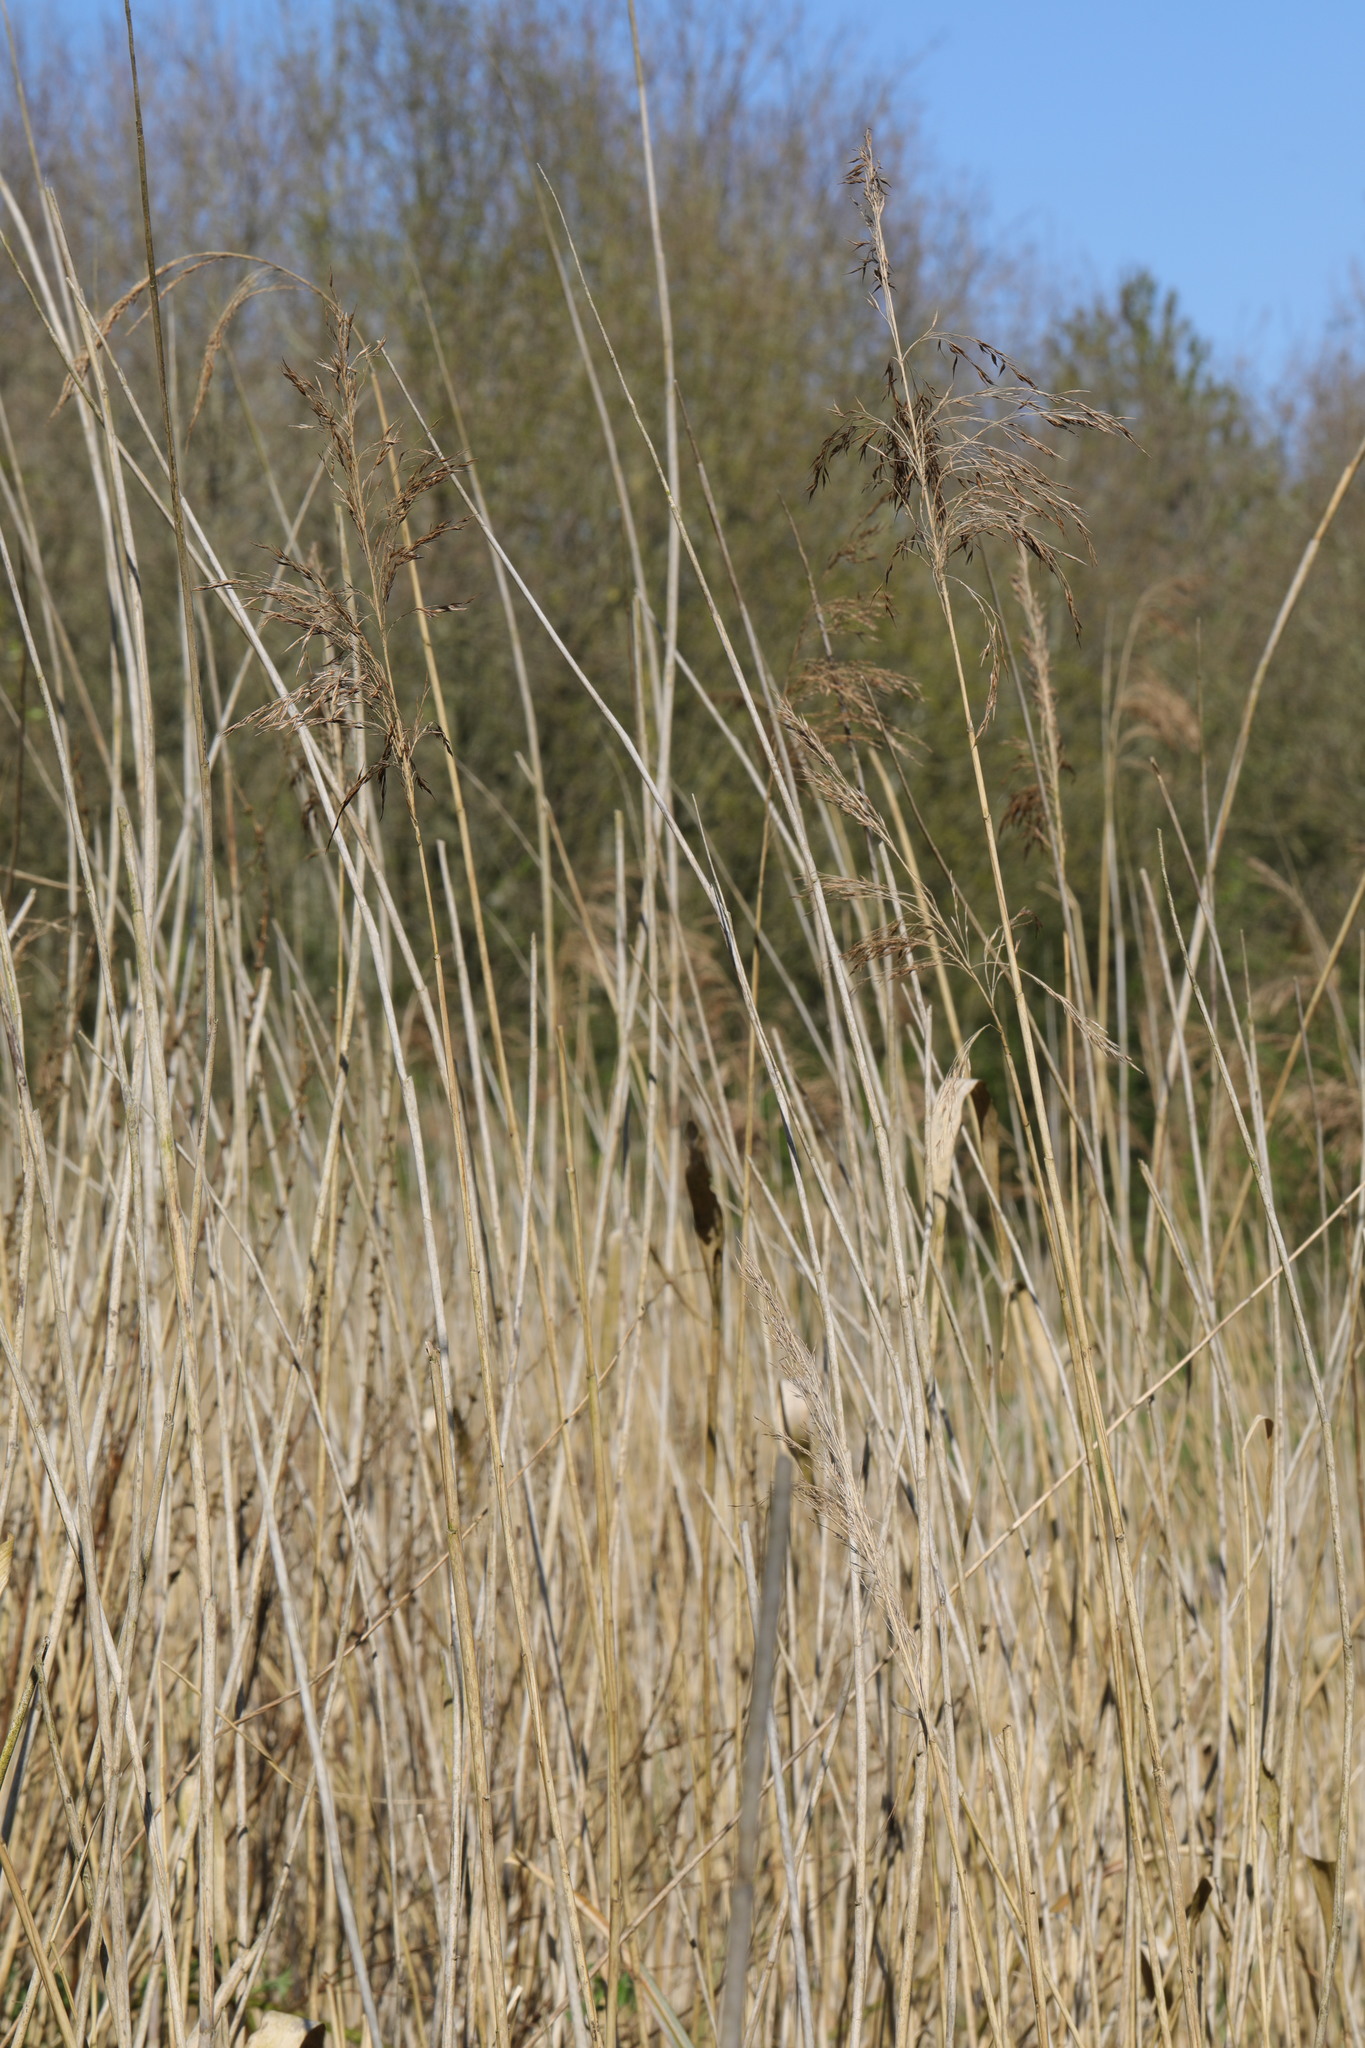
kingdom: Plantae
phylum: Tracheophyta
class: Liliopsida
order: Poales
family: Poaceae
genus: Phragmites
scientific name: Phragmites australis
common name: Common reed
